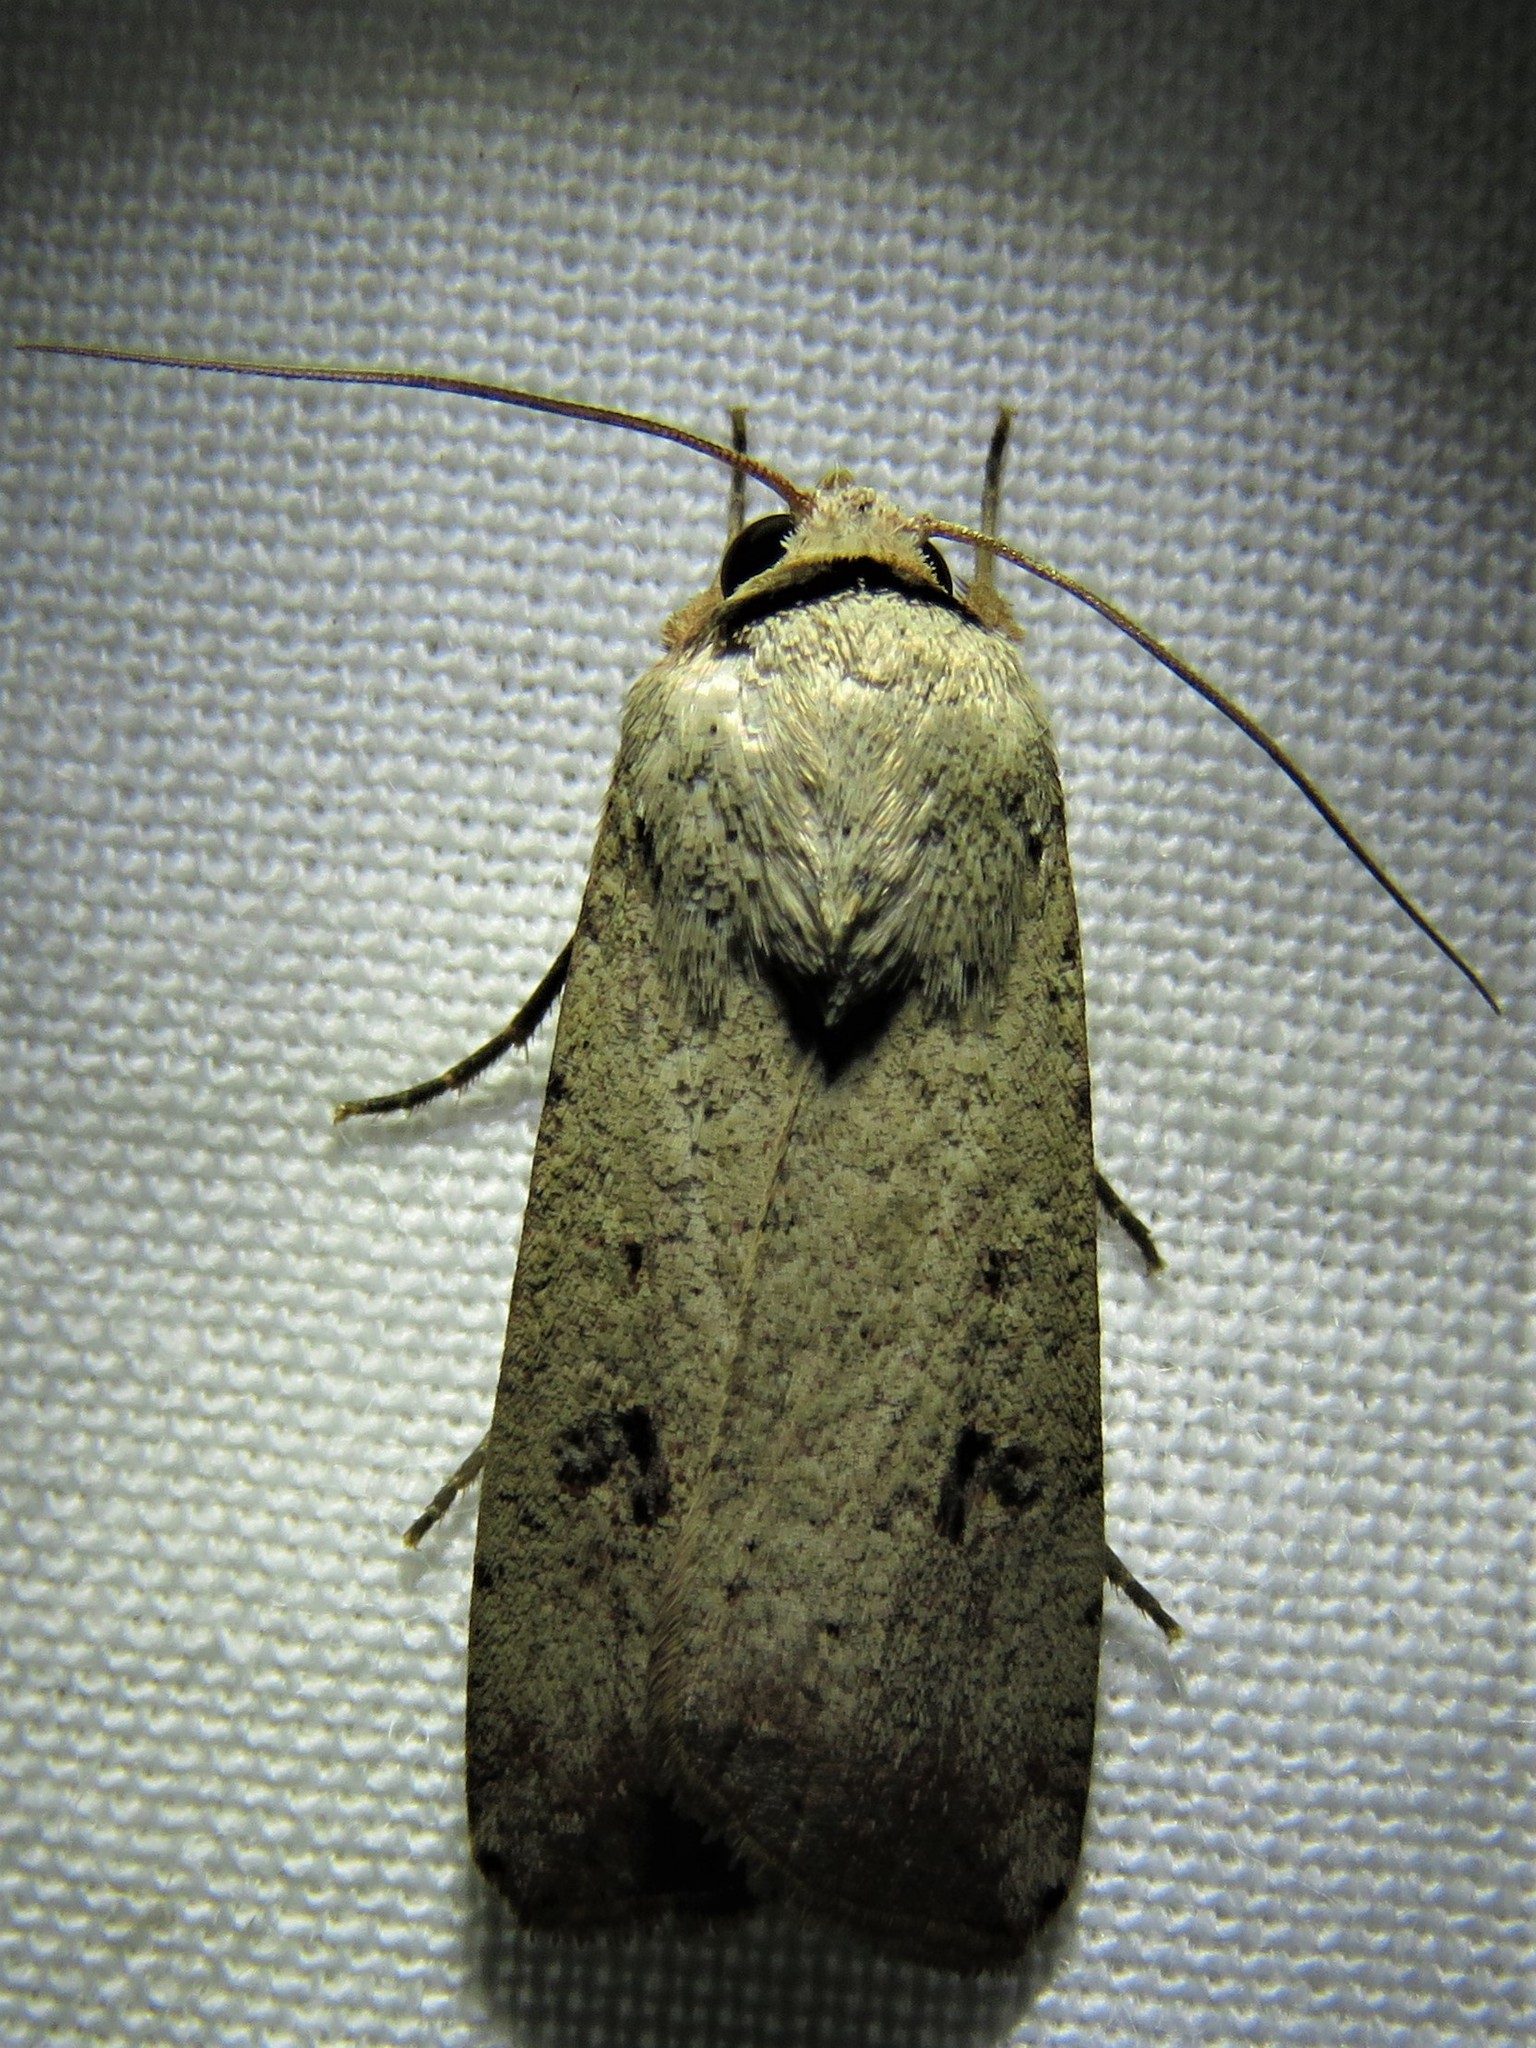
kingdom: Animalia
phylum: Arthropoda
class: Insecta
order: Lepidoptera
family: Noctuidae
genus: Anicla
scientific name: Anicla infecta
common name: Green cutworm
